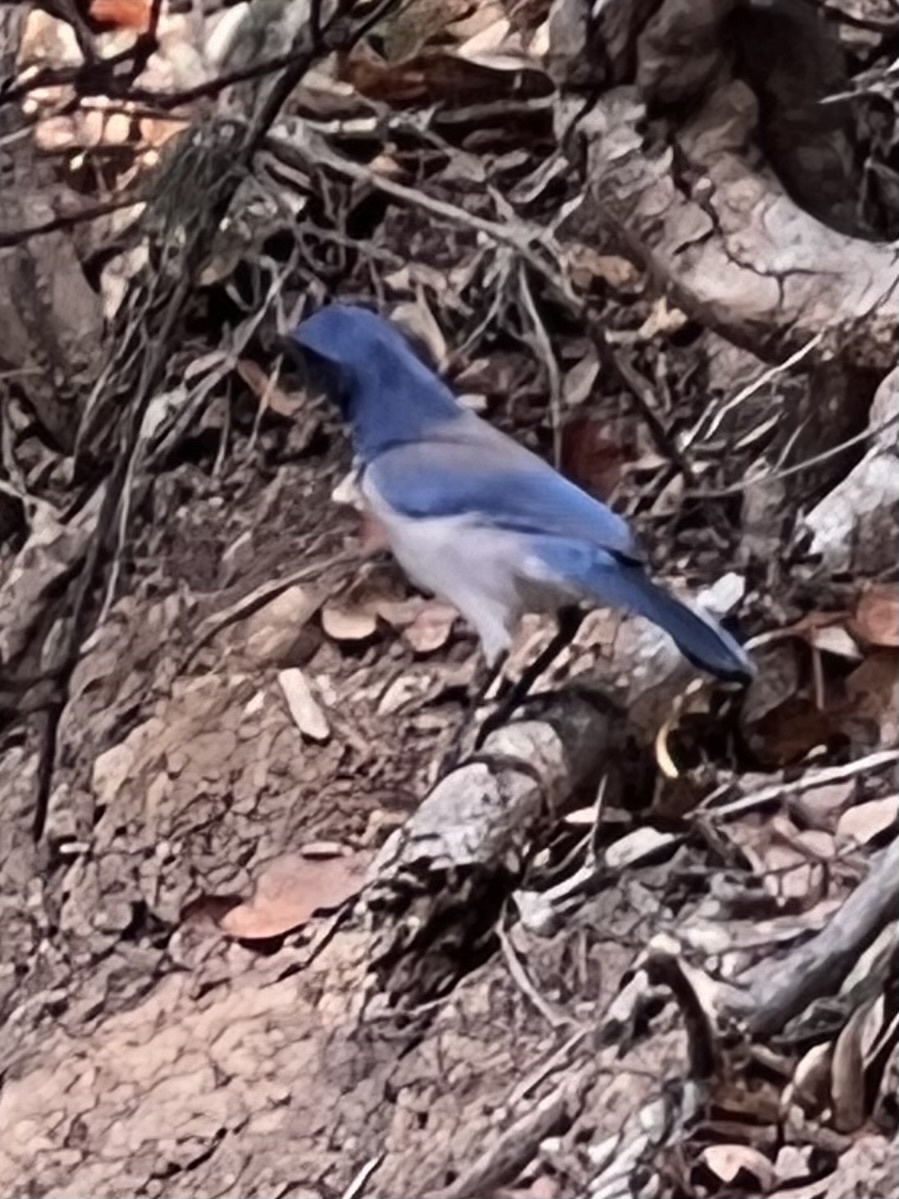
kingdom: Animalia
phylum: Chordata
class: Aves
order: Passeriformes
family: Corvidae
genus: Aphelocoma
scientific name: Aphelocoma californica
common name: California scrub-jay
